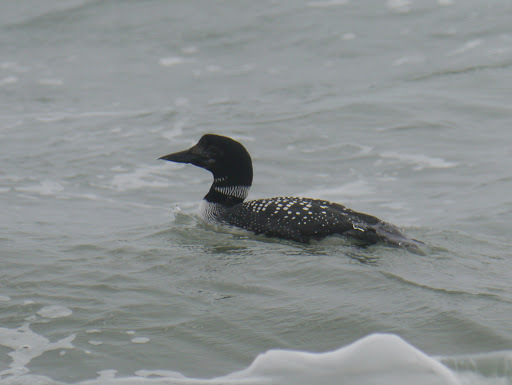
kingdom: Animalia
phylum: Chordata
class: Aves
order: Gaviiformes
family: Gaviidae
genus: Gavia
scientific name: Gavia immer
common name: Common loon
